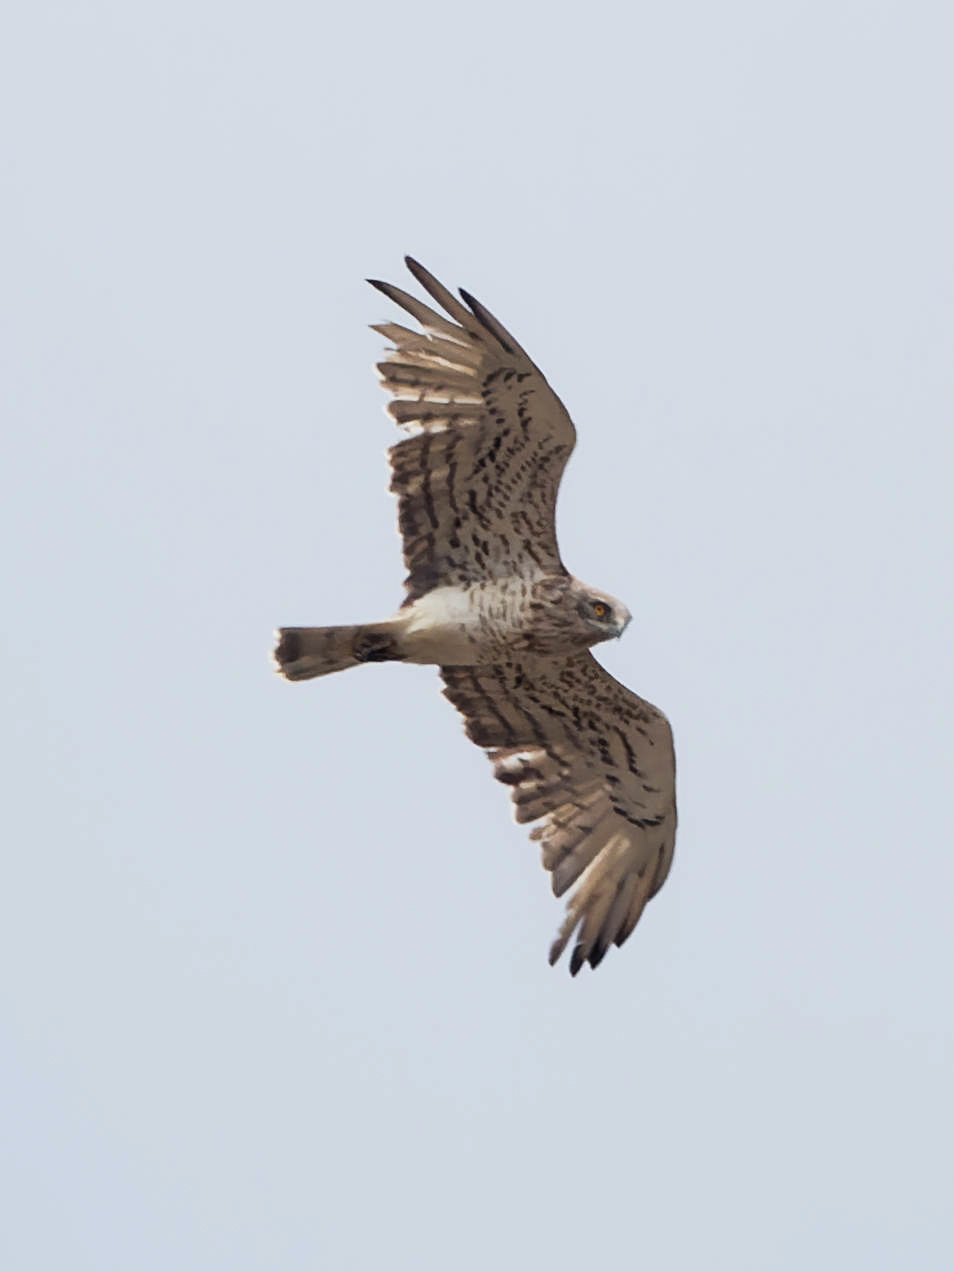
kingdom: Animalia
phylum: Chordata
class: Aves
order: Accipitriformes
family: Accipitridae
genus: Circaetus
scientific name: Circaetus gallicus
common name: Short-toed snake eagle
